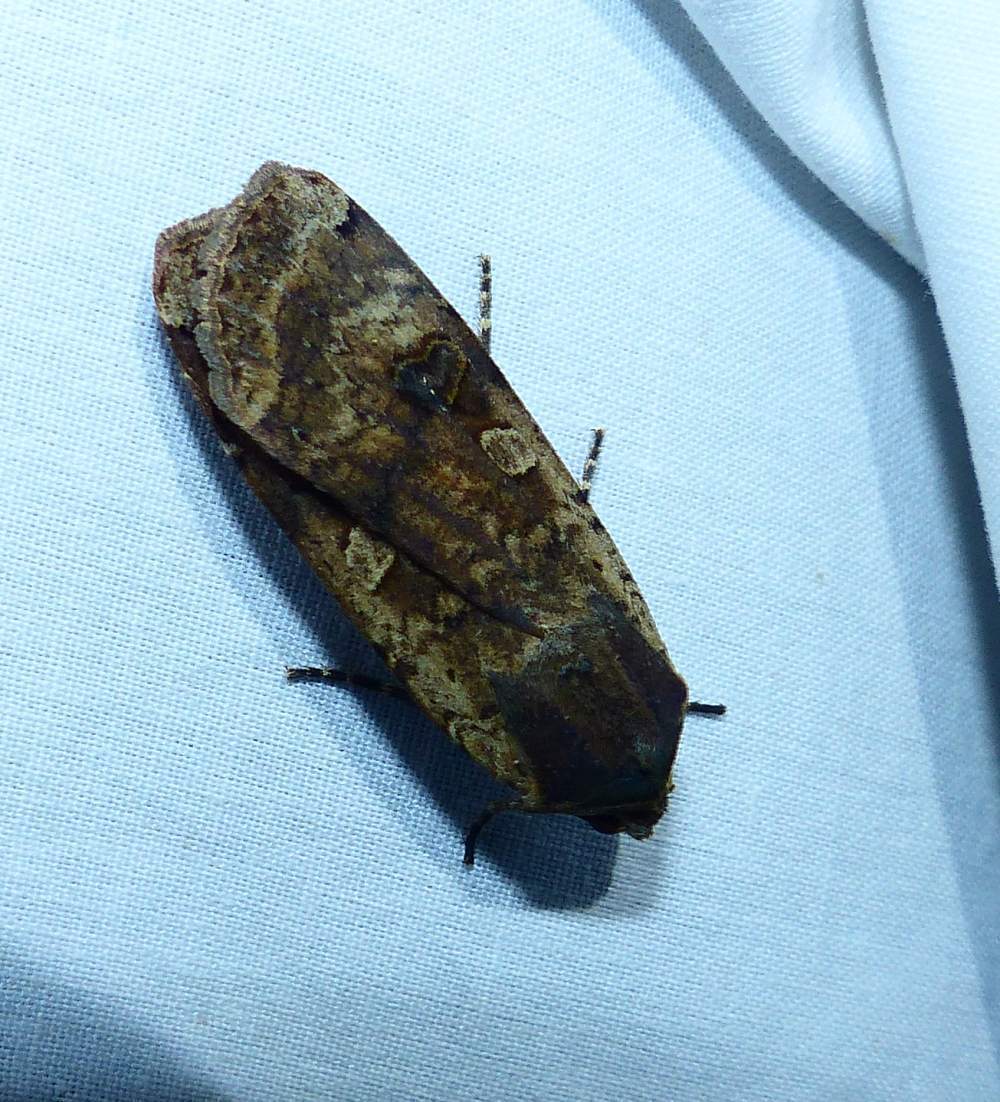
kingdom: Animalia
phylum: Arthropoda
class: Insecta
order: Lepidoptera
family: Noctuidae
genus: Noctua
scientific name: Noctua pronuba
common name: Large yellow underwing
